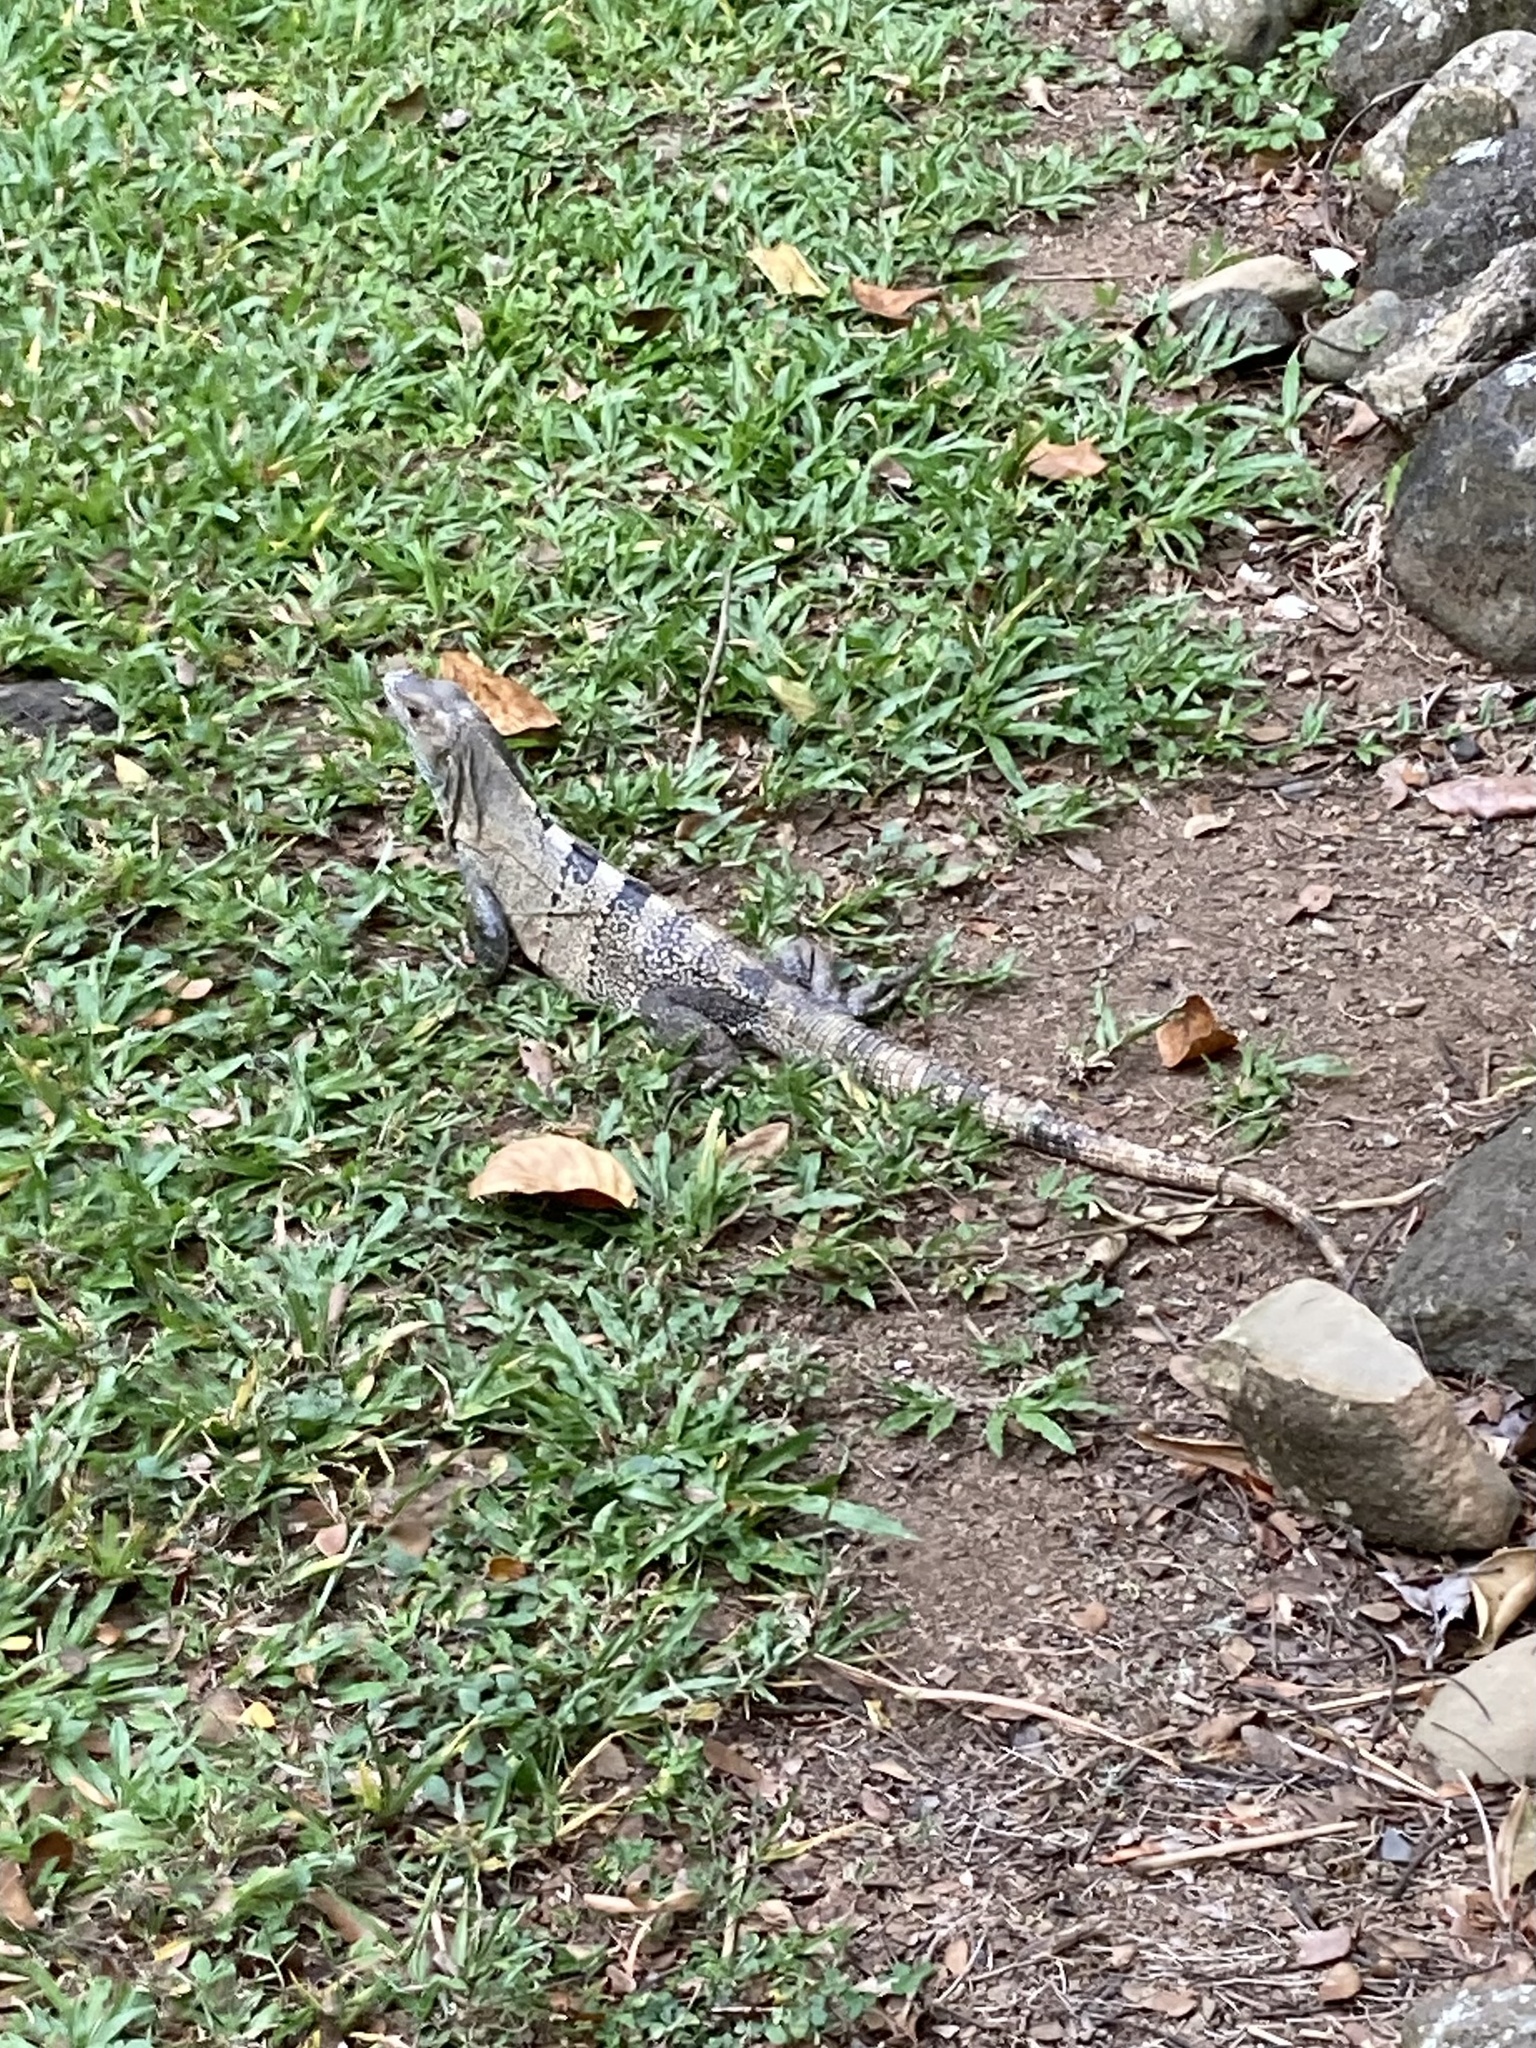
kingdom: Animalia
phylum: Chordata
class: Squamata
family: Iguanidae
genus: Ctenosaura
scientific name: Ctenosaura similis
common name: Black spiny-tailed iguana
